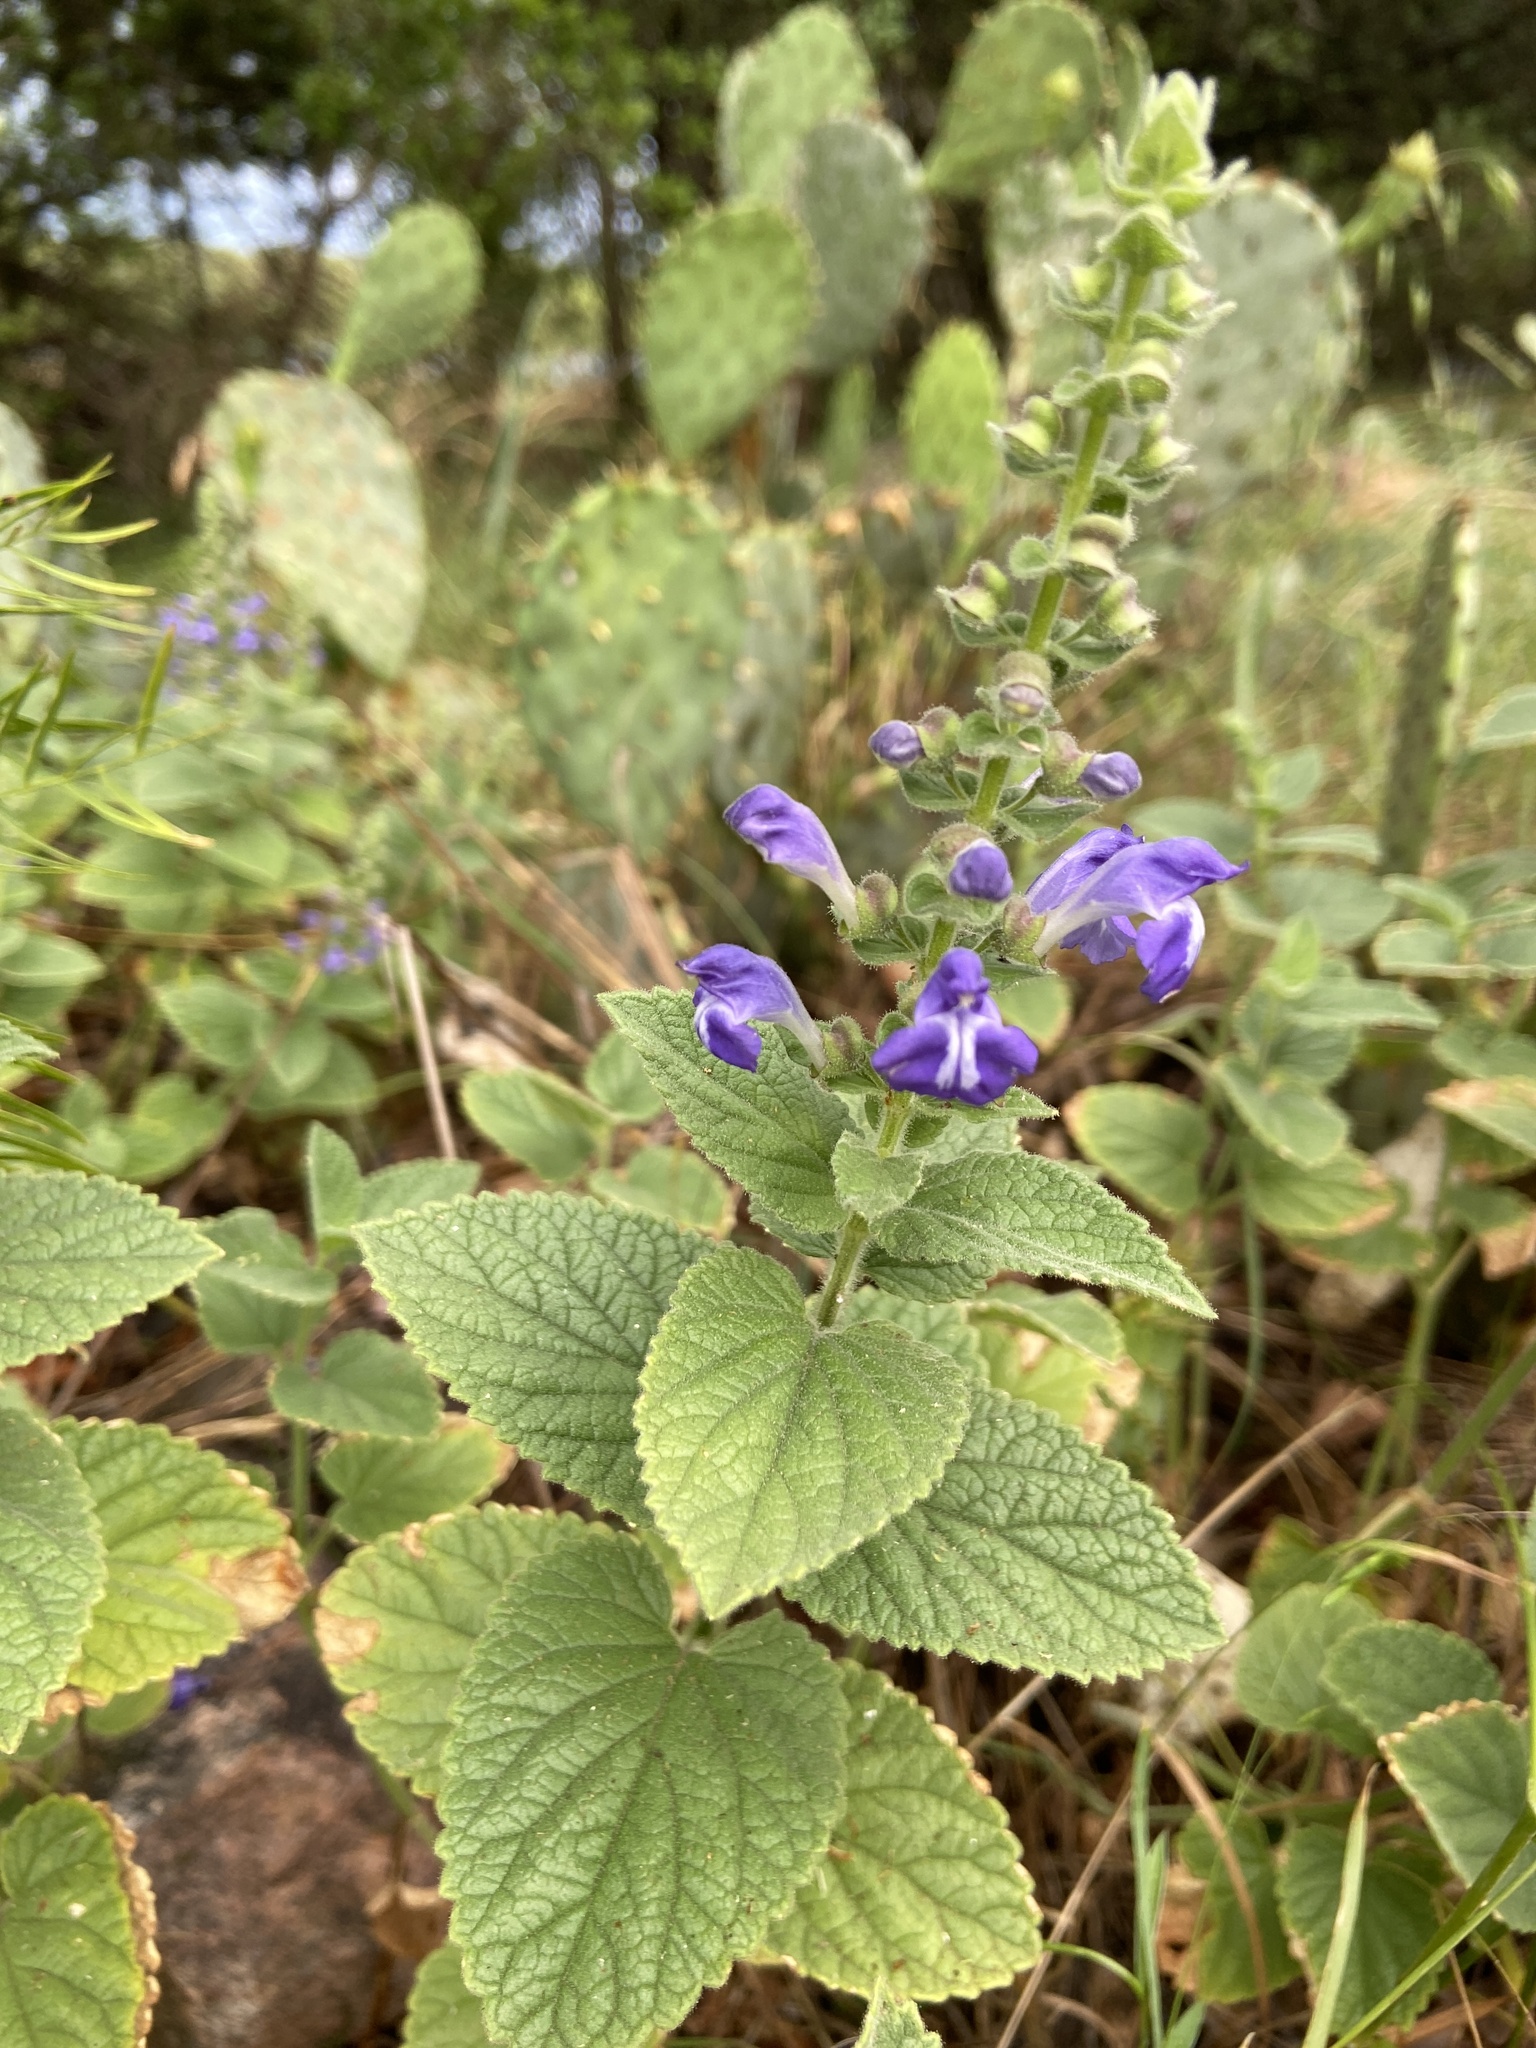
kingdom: Plantae
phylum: Tracheophyta
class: Magnoliopsida
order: Lamiales
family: Lamiaceae
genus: Scutellaria
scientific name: Scutellaria ovata
